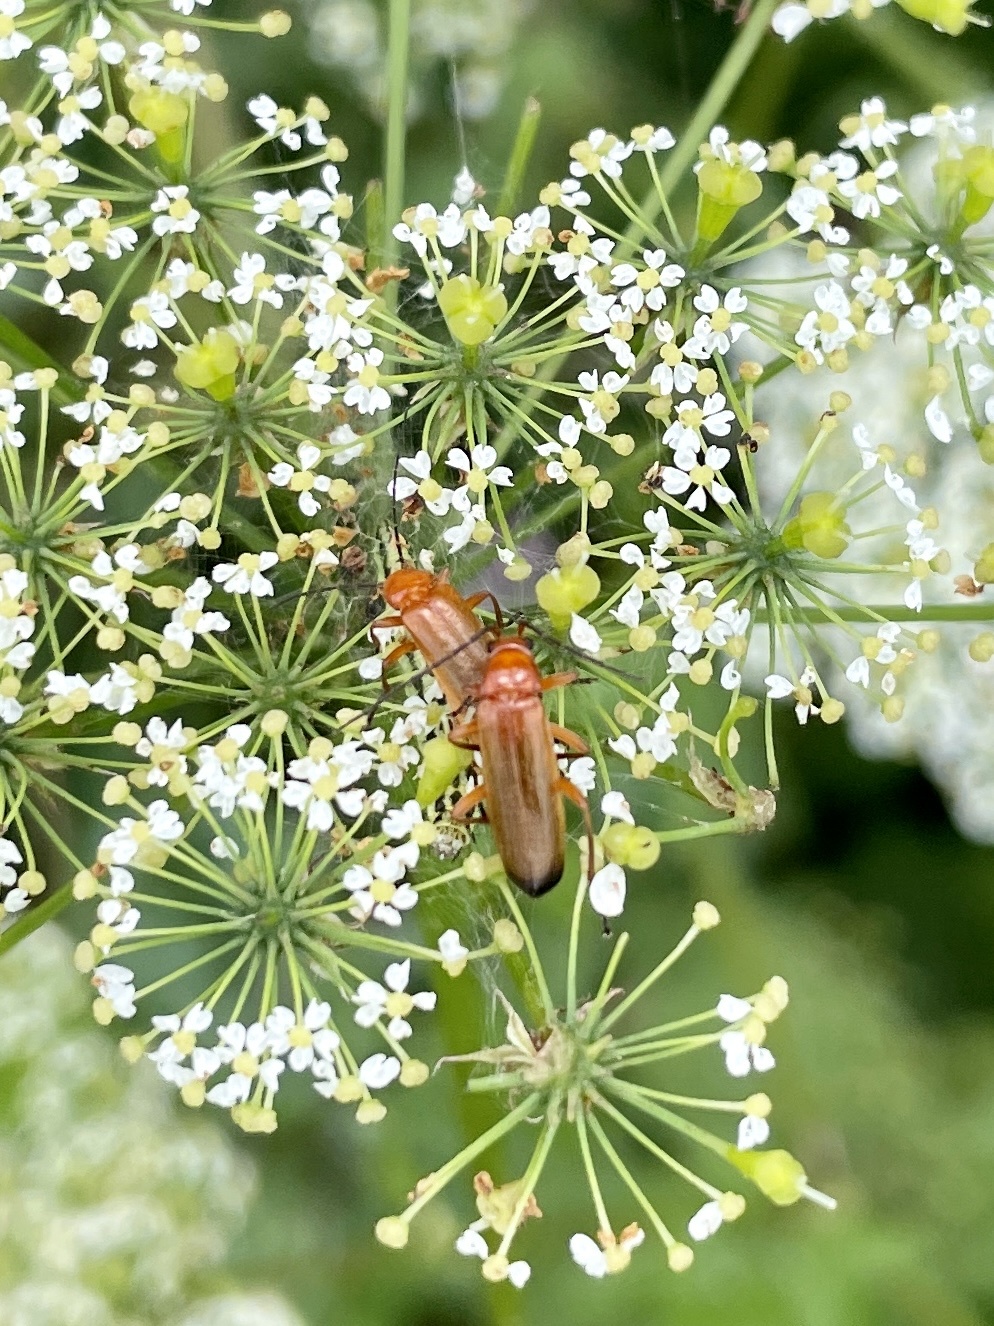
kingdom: Animalia
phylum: Arthropoda
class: Insecta
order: Coleoptera
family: Cantharidae
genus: Rhagonycha
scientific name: Rhagonycha fulva
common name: Common red soldier beetle
